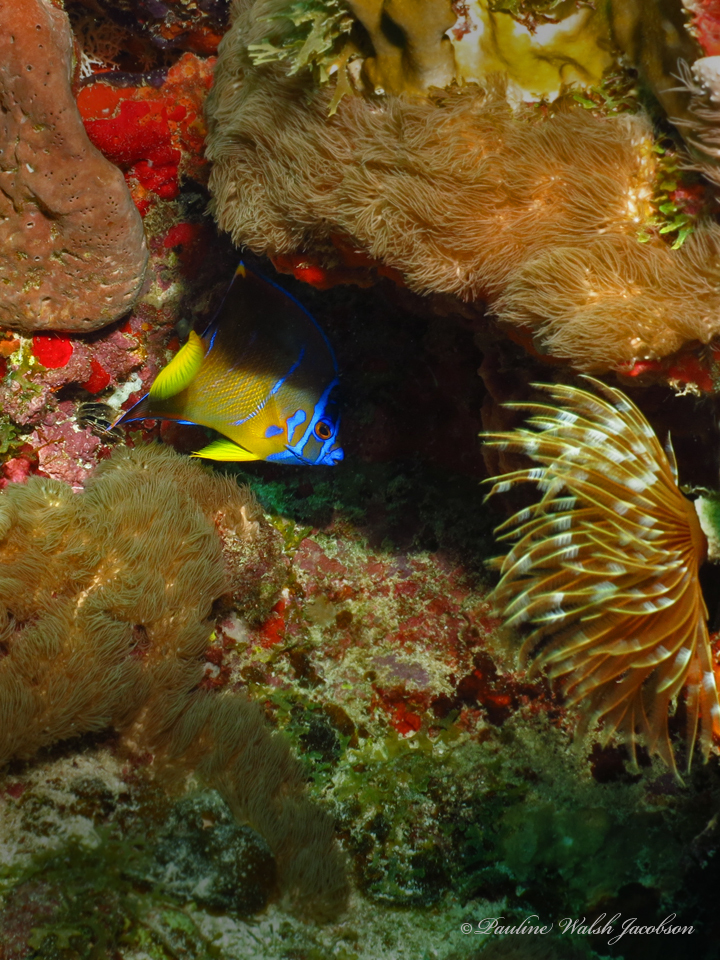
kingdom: Animalia
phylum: Chordata
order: Perciformes
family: Pomacanthidae
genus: Holacanthus
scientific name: Holacanthus ciliaris
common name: Queen angelfish
